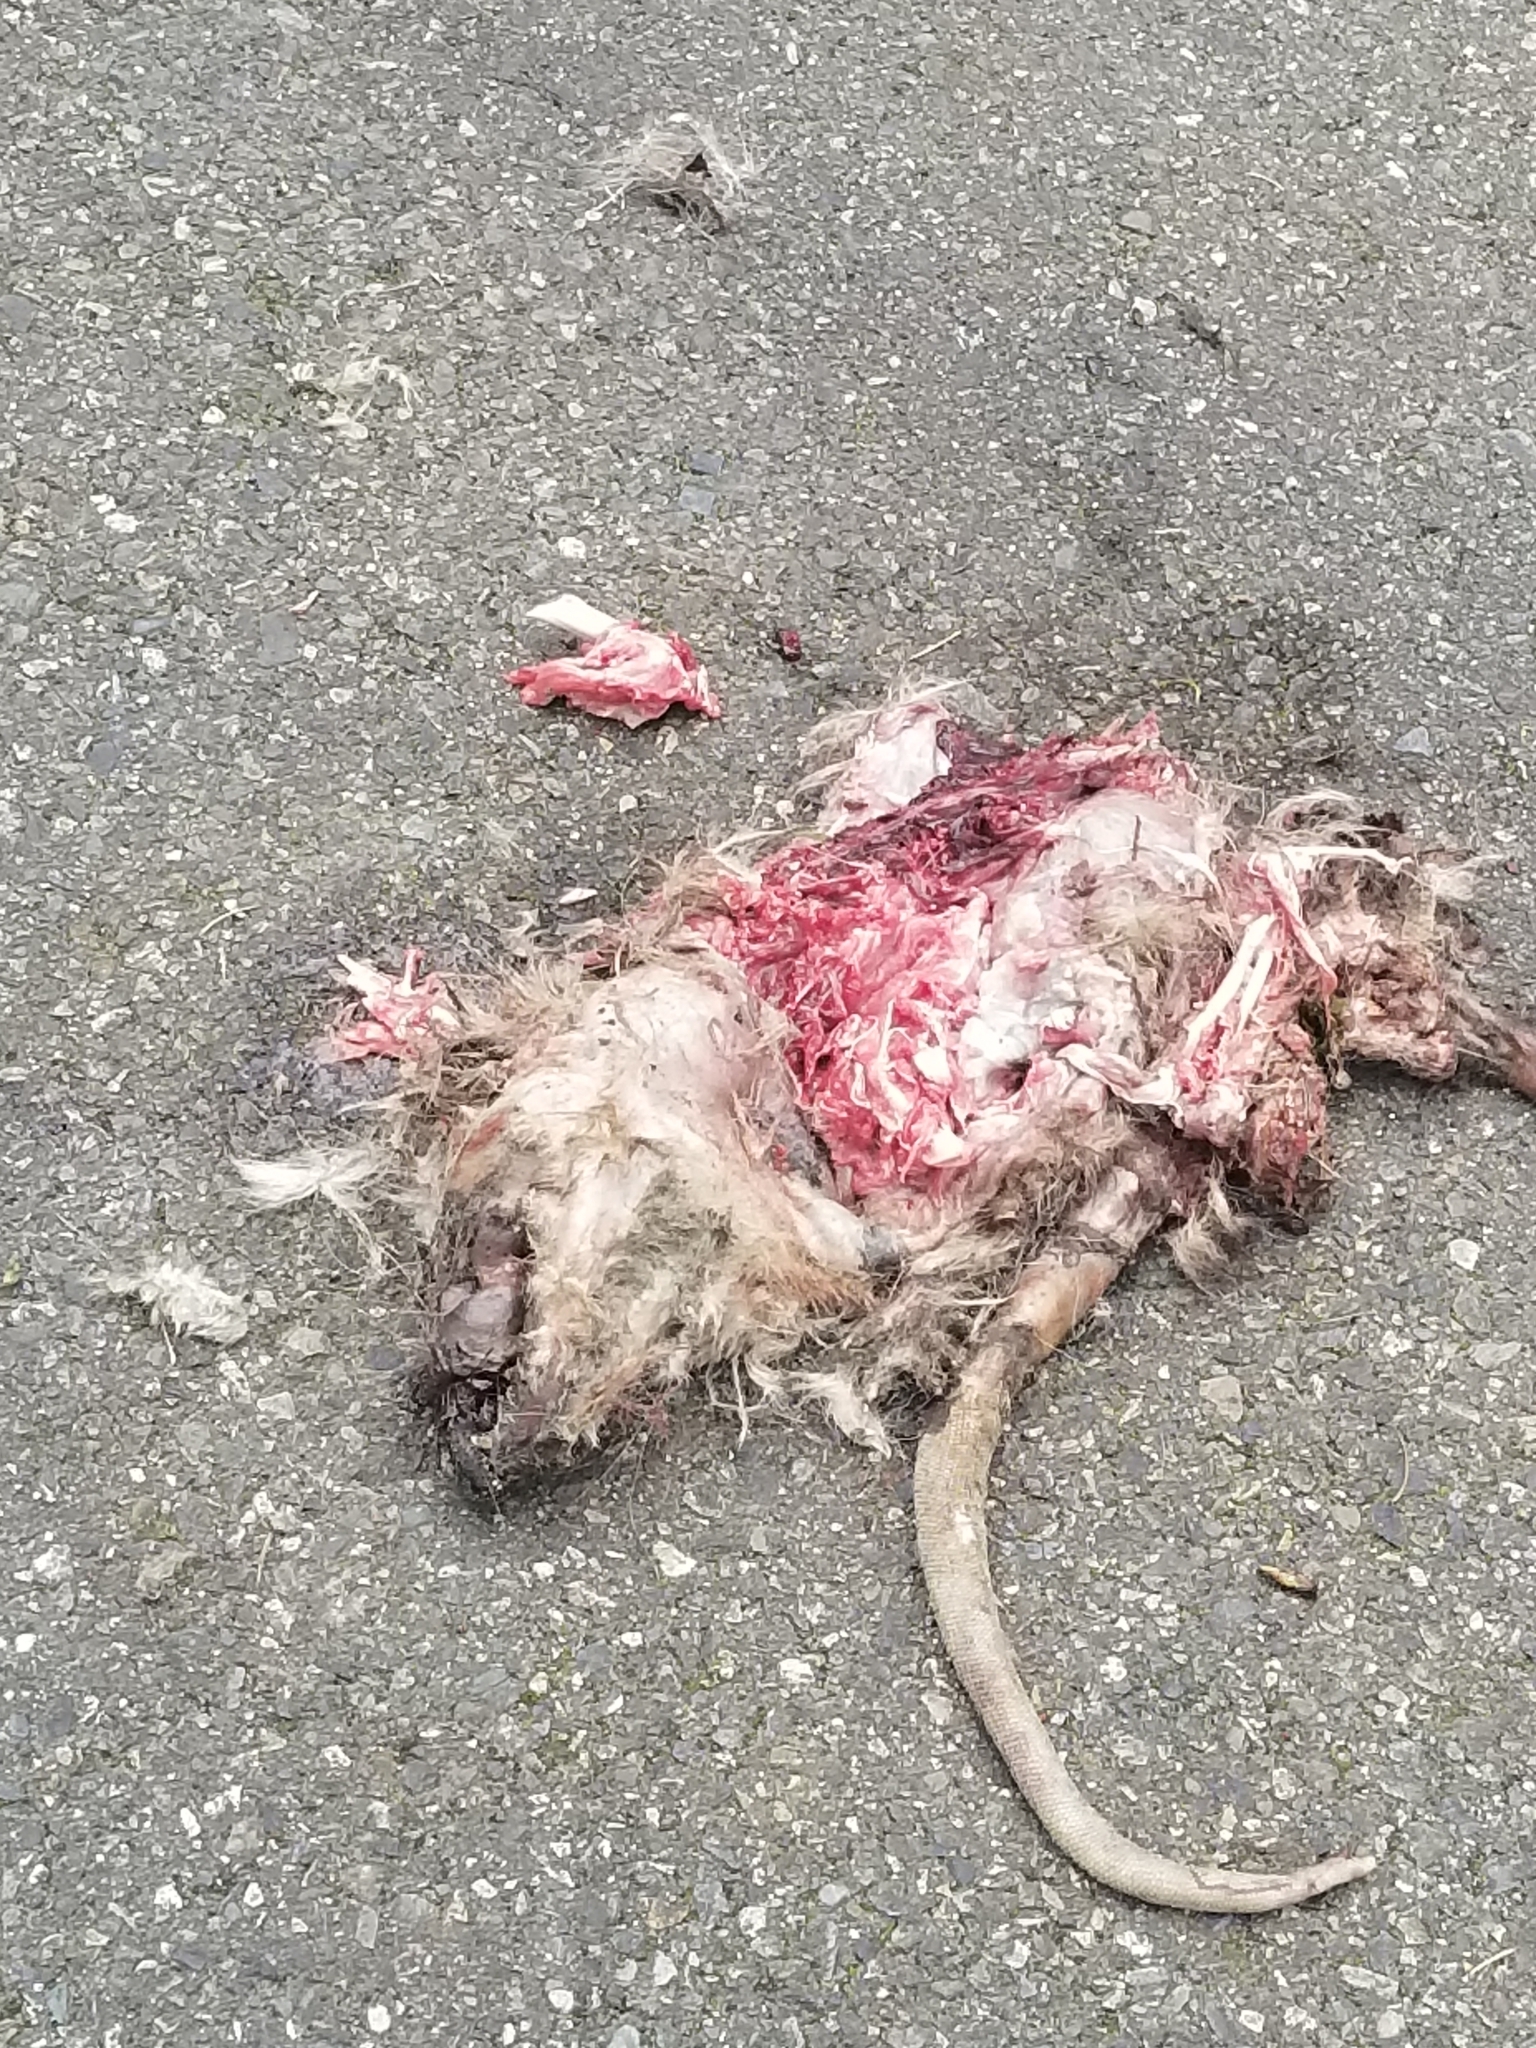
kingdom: Animalia
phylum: Chordata
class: Mammalia
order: Didelphimorphia
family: Didelphidae
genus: Didelphis
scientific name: Didelphis virginiana
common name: Virginia opossum
